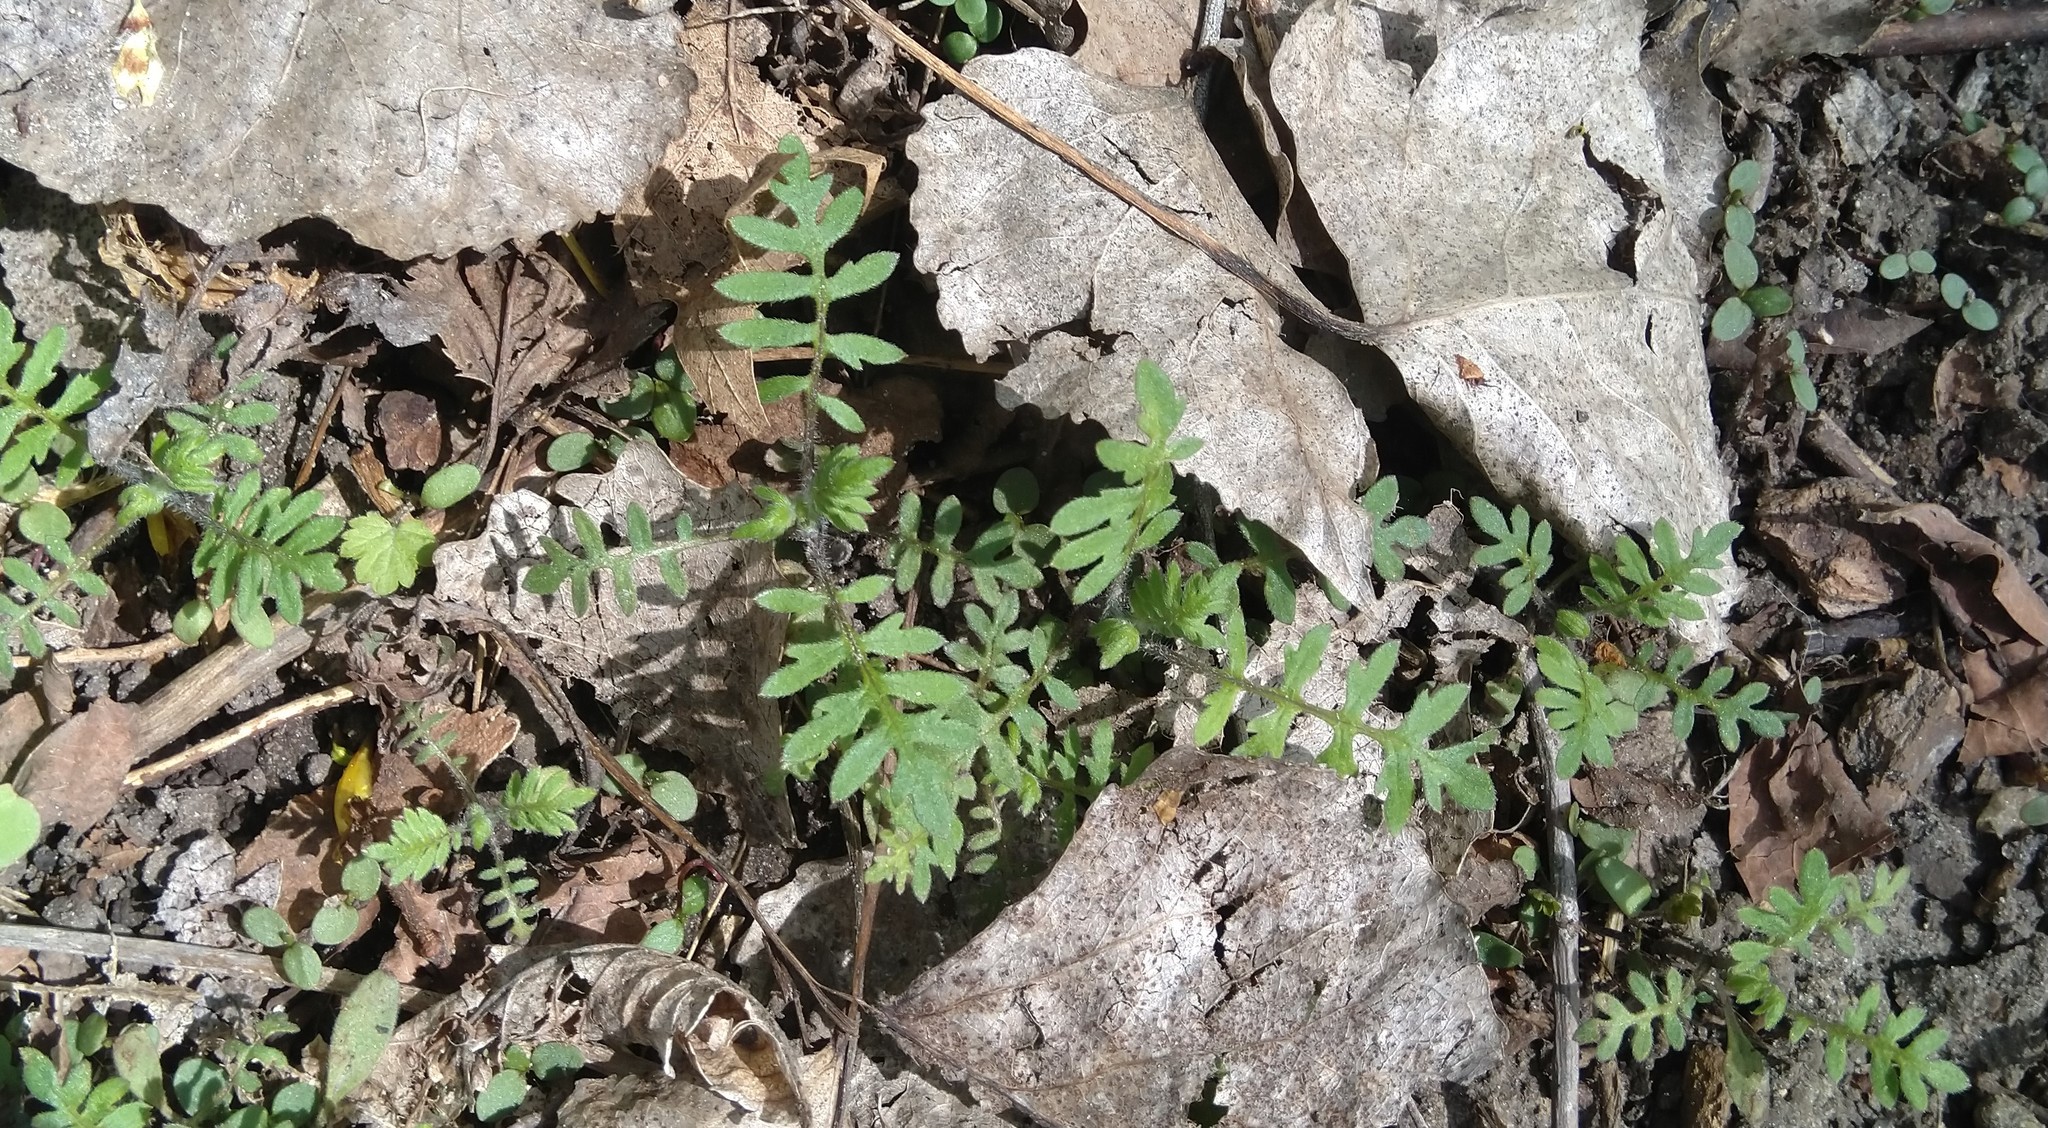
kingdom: Plantae
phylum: Tracheophyta
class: Magnoliopsida
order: Boraginales
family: Hydrophyllaceae
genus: Ellisia
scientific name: Ellisia nyctelea
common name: Aunt lucy
